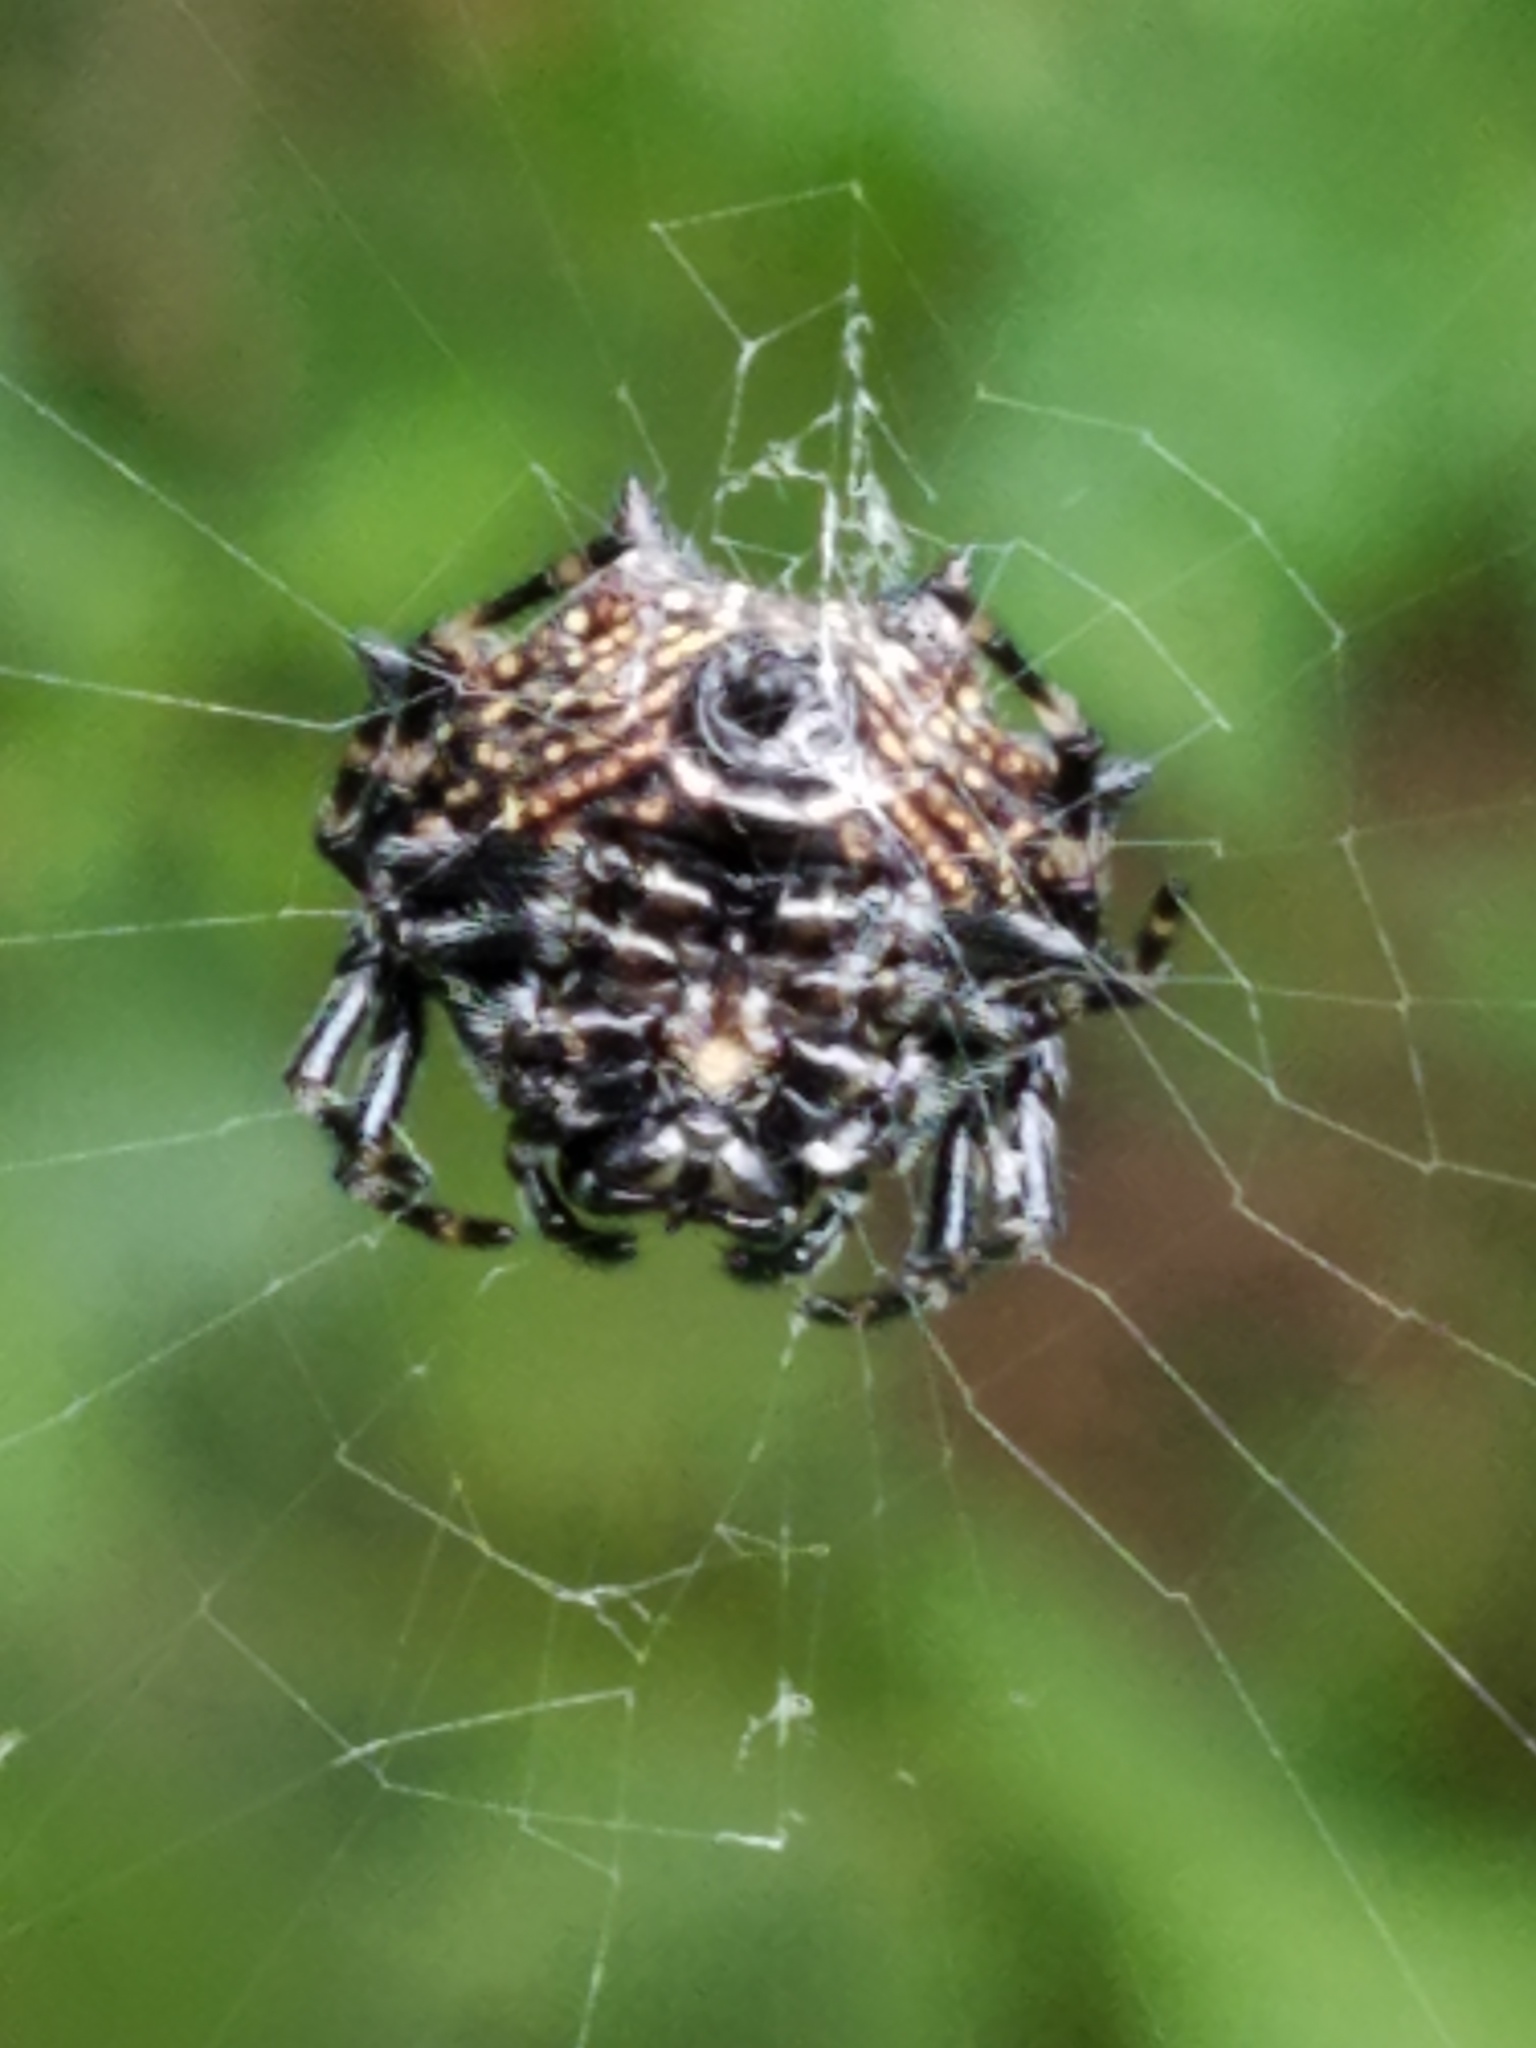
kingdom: Animalia
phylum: Arthropoda
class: Arachnida
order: Araneae
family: Araneidae
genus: Gasteracantha
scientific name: Gasteracantha cancriformis
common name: Orb weavers
